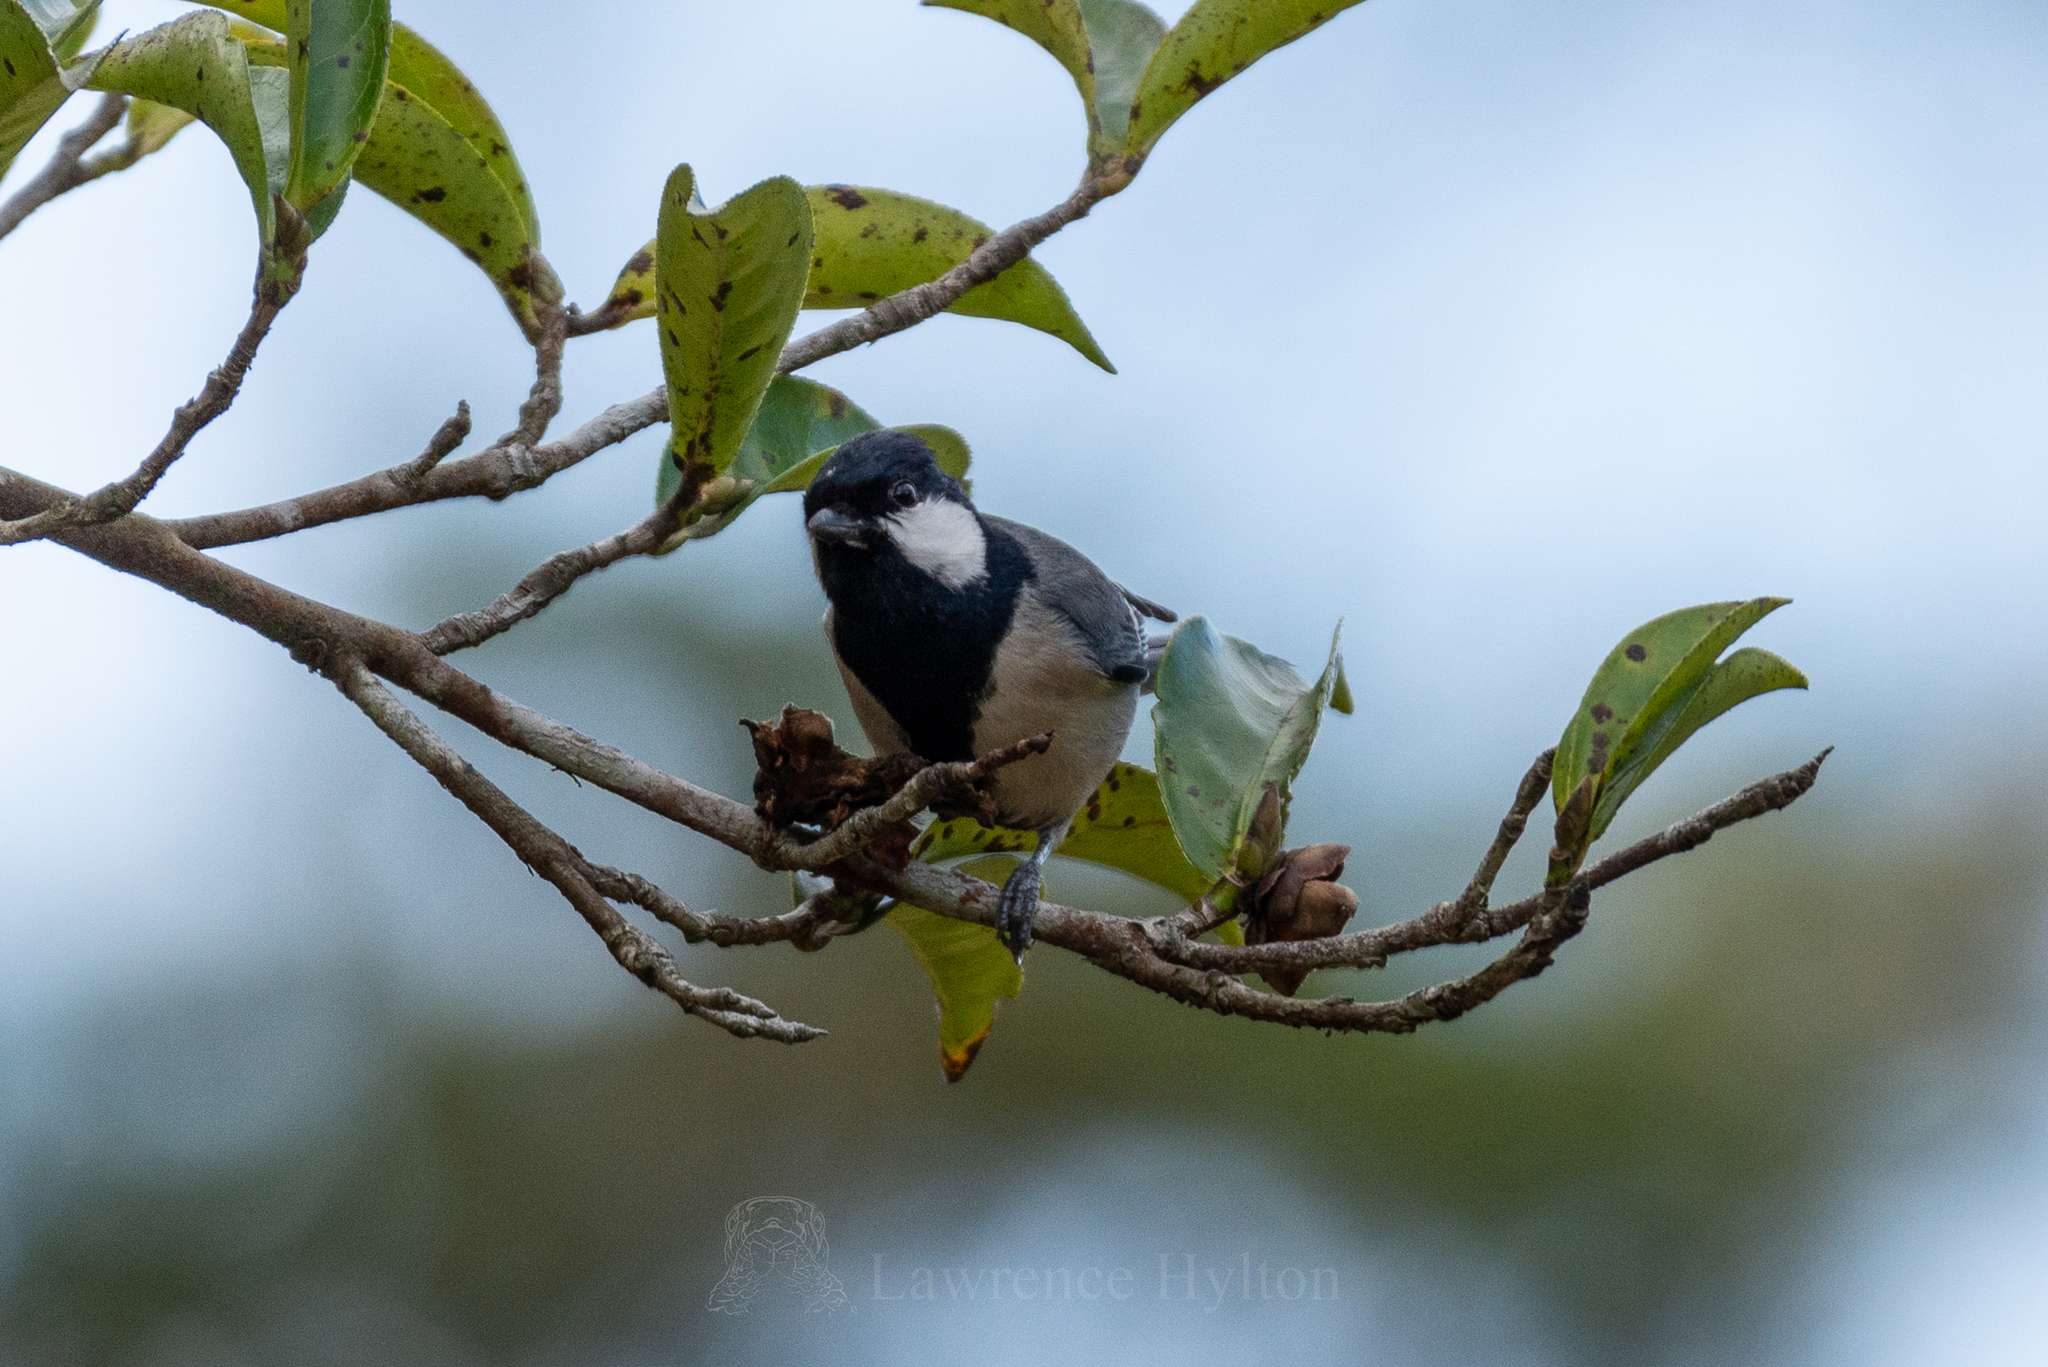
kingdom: Animalia
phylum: Chordata
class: Aves
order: Passeriformes
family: Paridae
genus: Parus
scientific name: Parus minor
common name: Japanese tit
